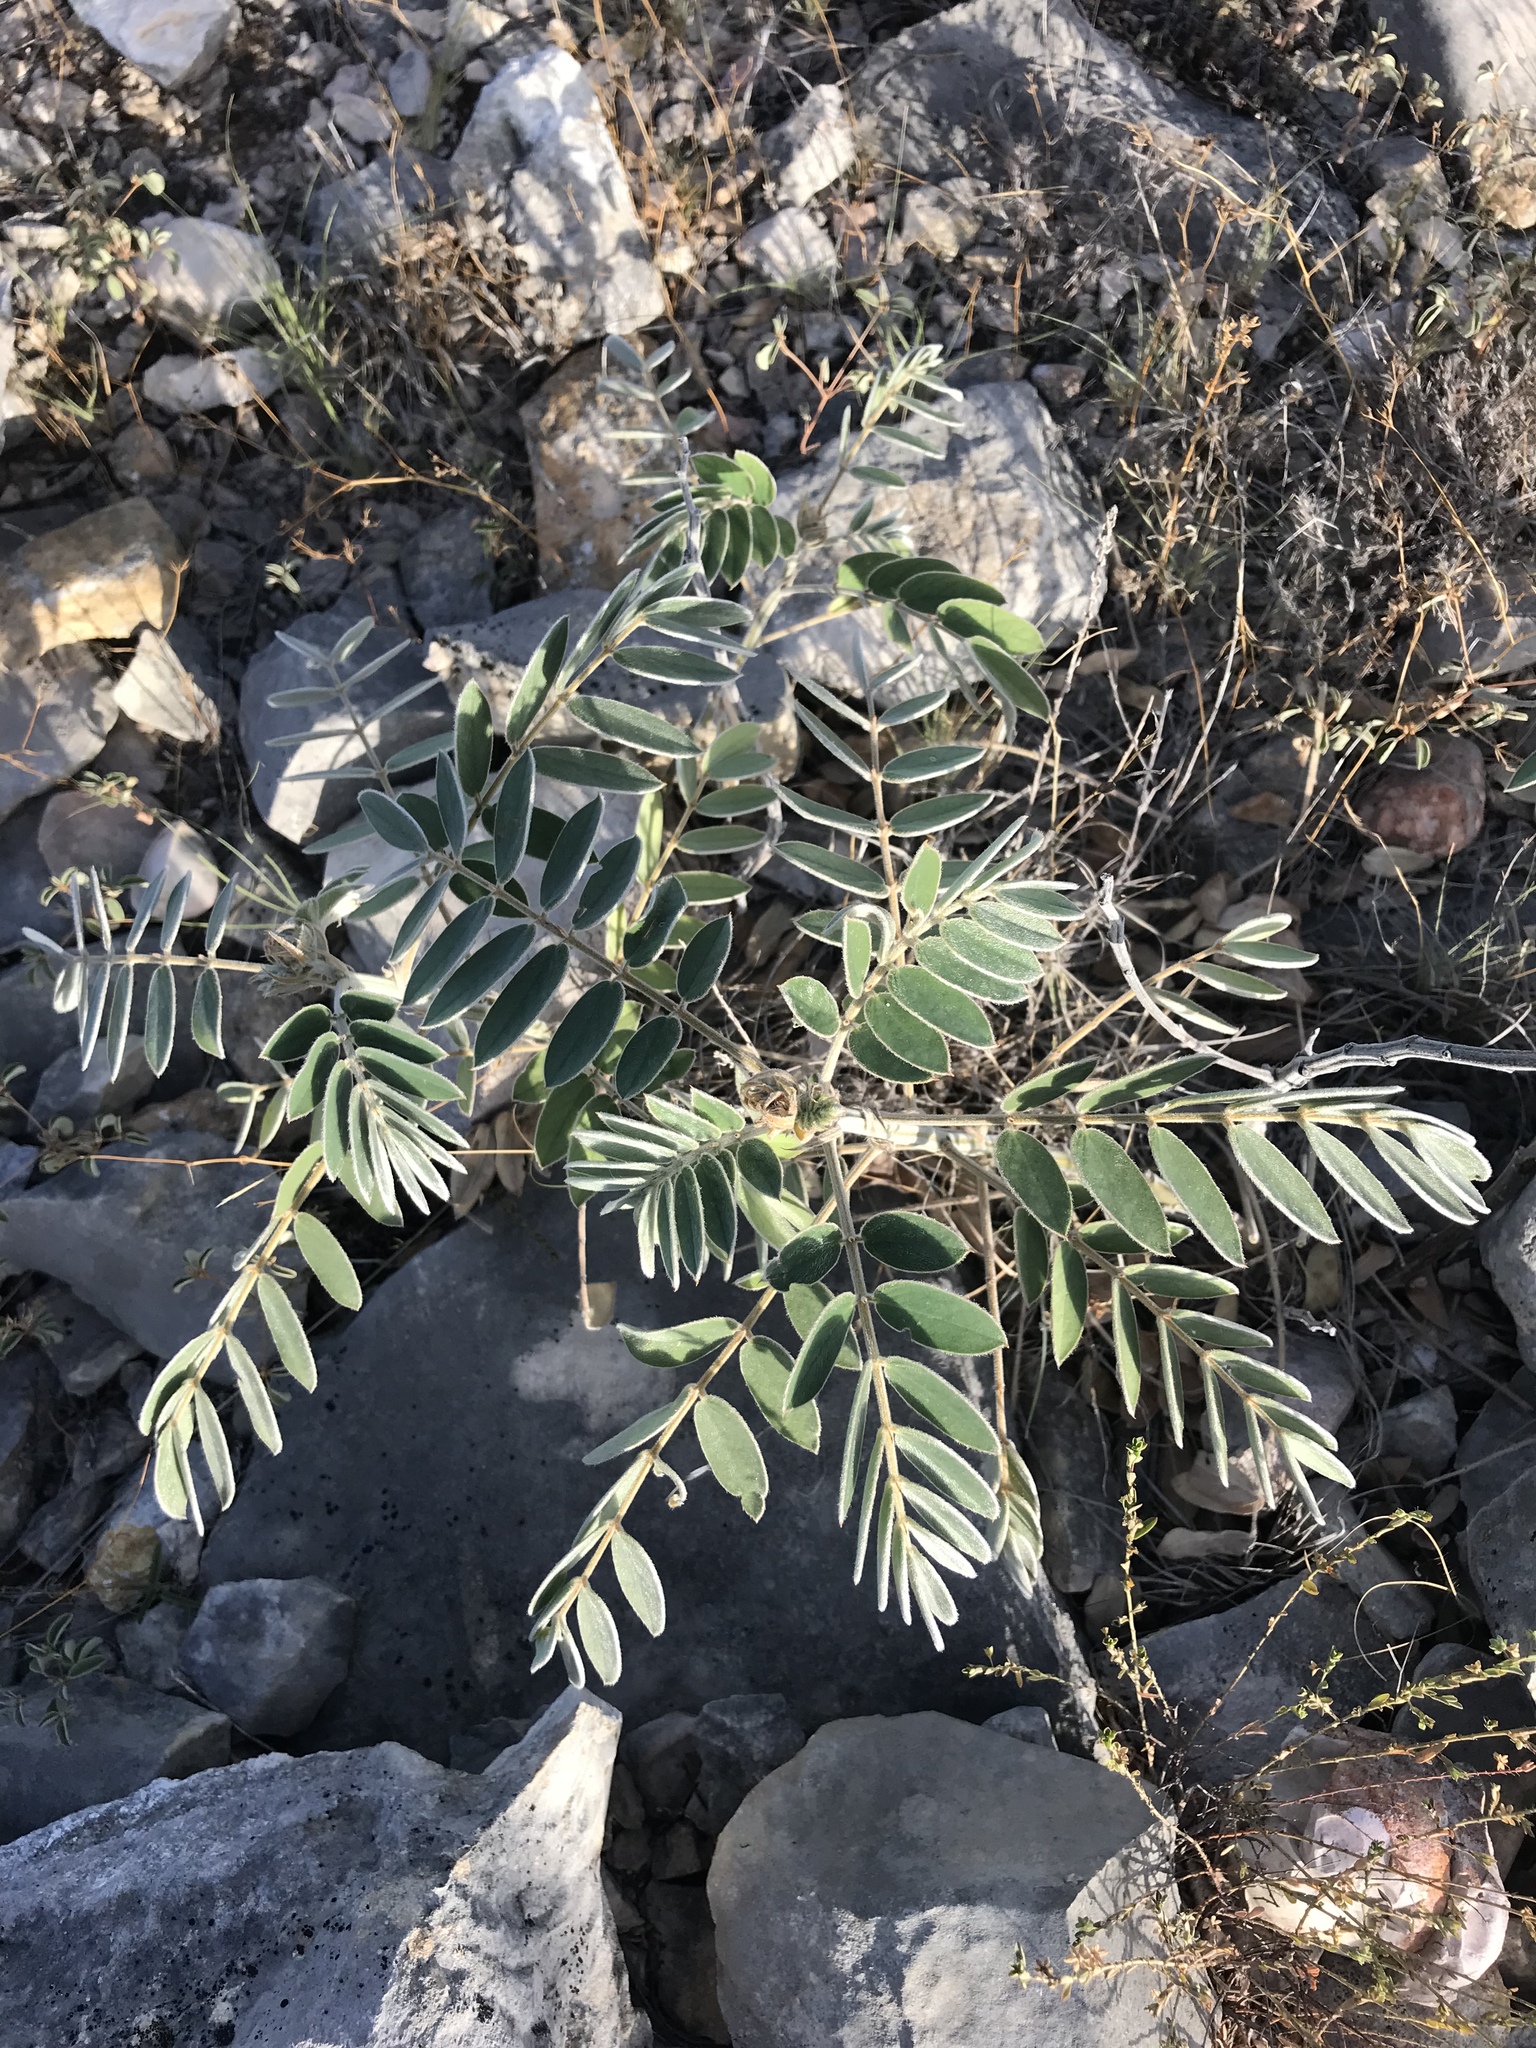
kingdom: Plantae
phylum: Tracheophyta
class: Magnoliopsida
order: Fabales
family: Fabaceae
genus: Senna
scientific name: Senna lindheimeriana
